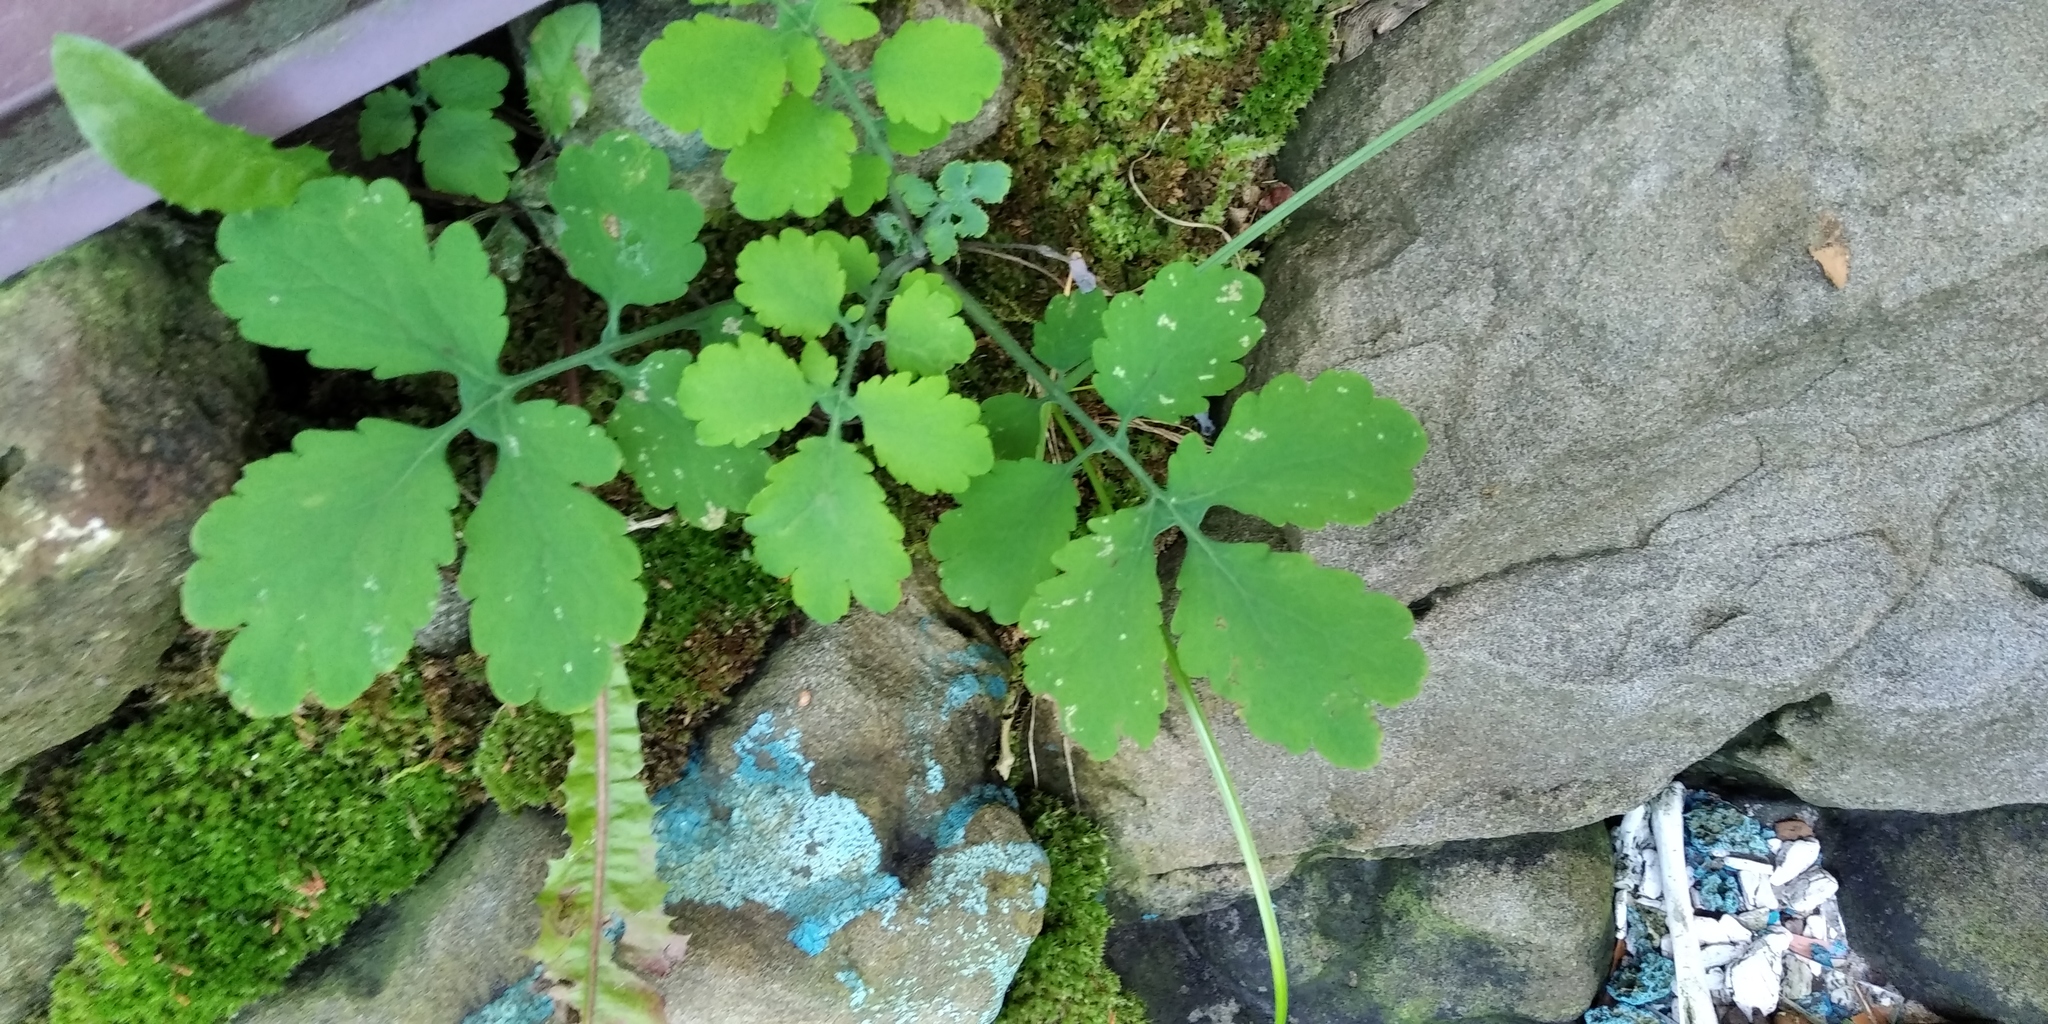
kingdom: Plantae
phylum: Tracheophyta
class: Magnoliopsida
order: Ranunculales
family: Papaveraceae
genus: Chelidonium
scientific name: Chelidonium majus
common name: Greater celandine
